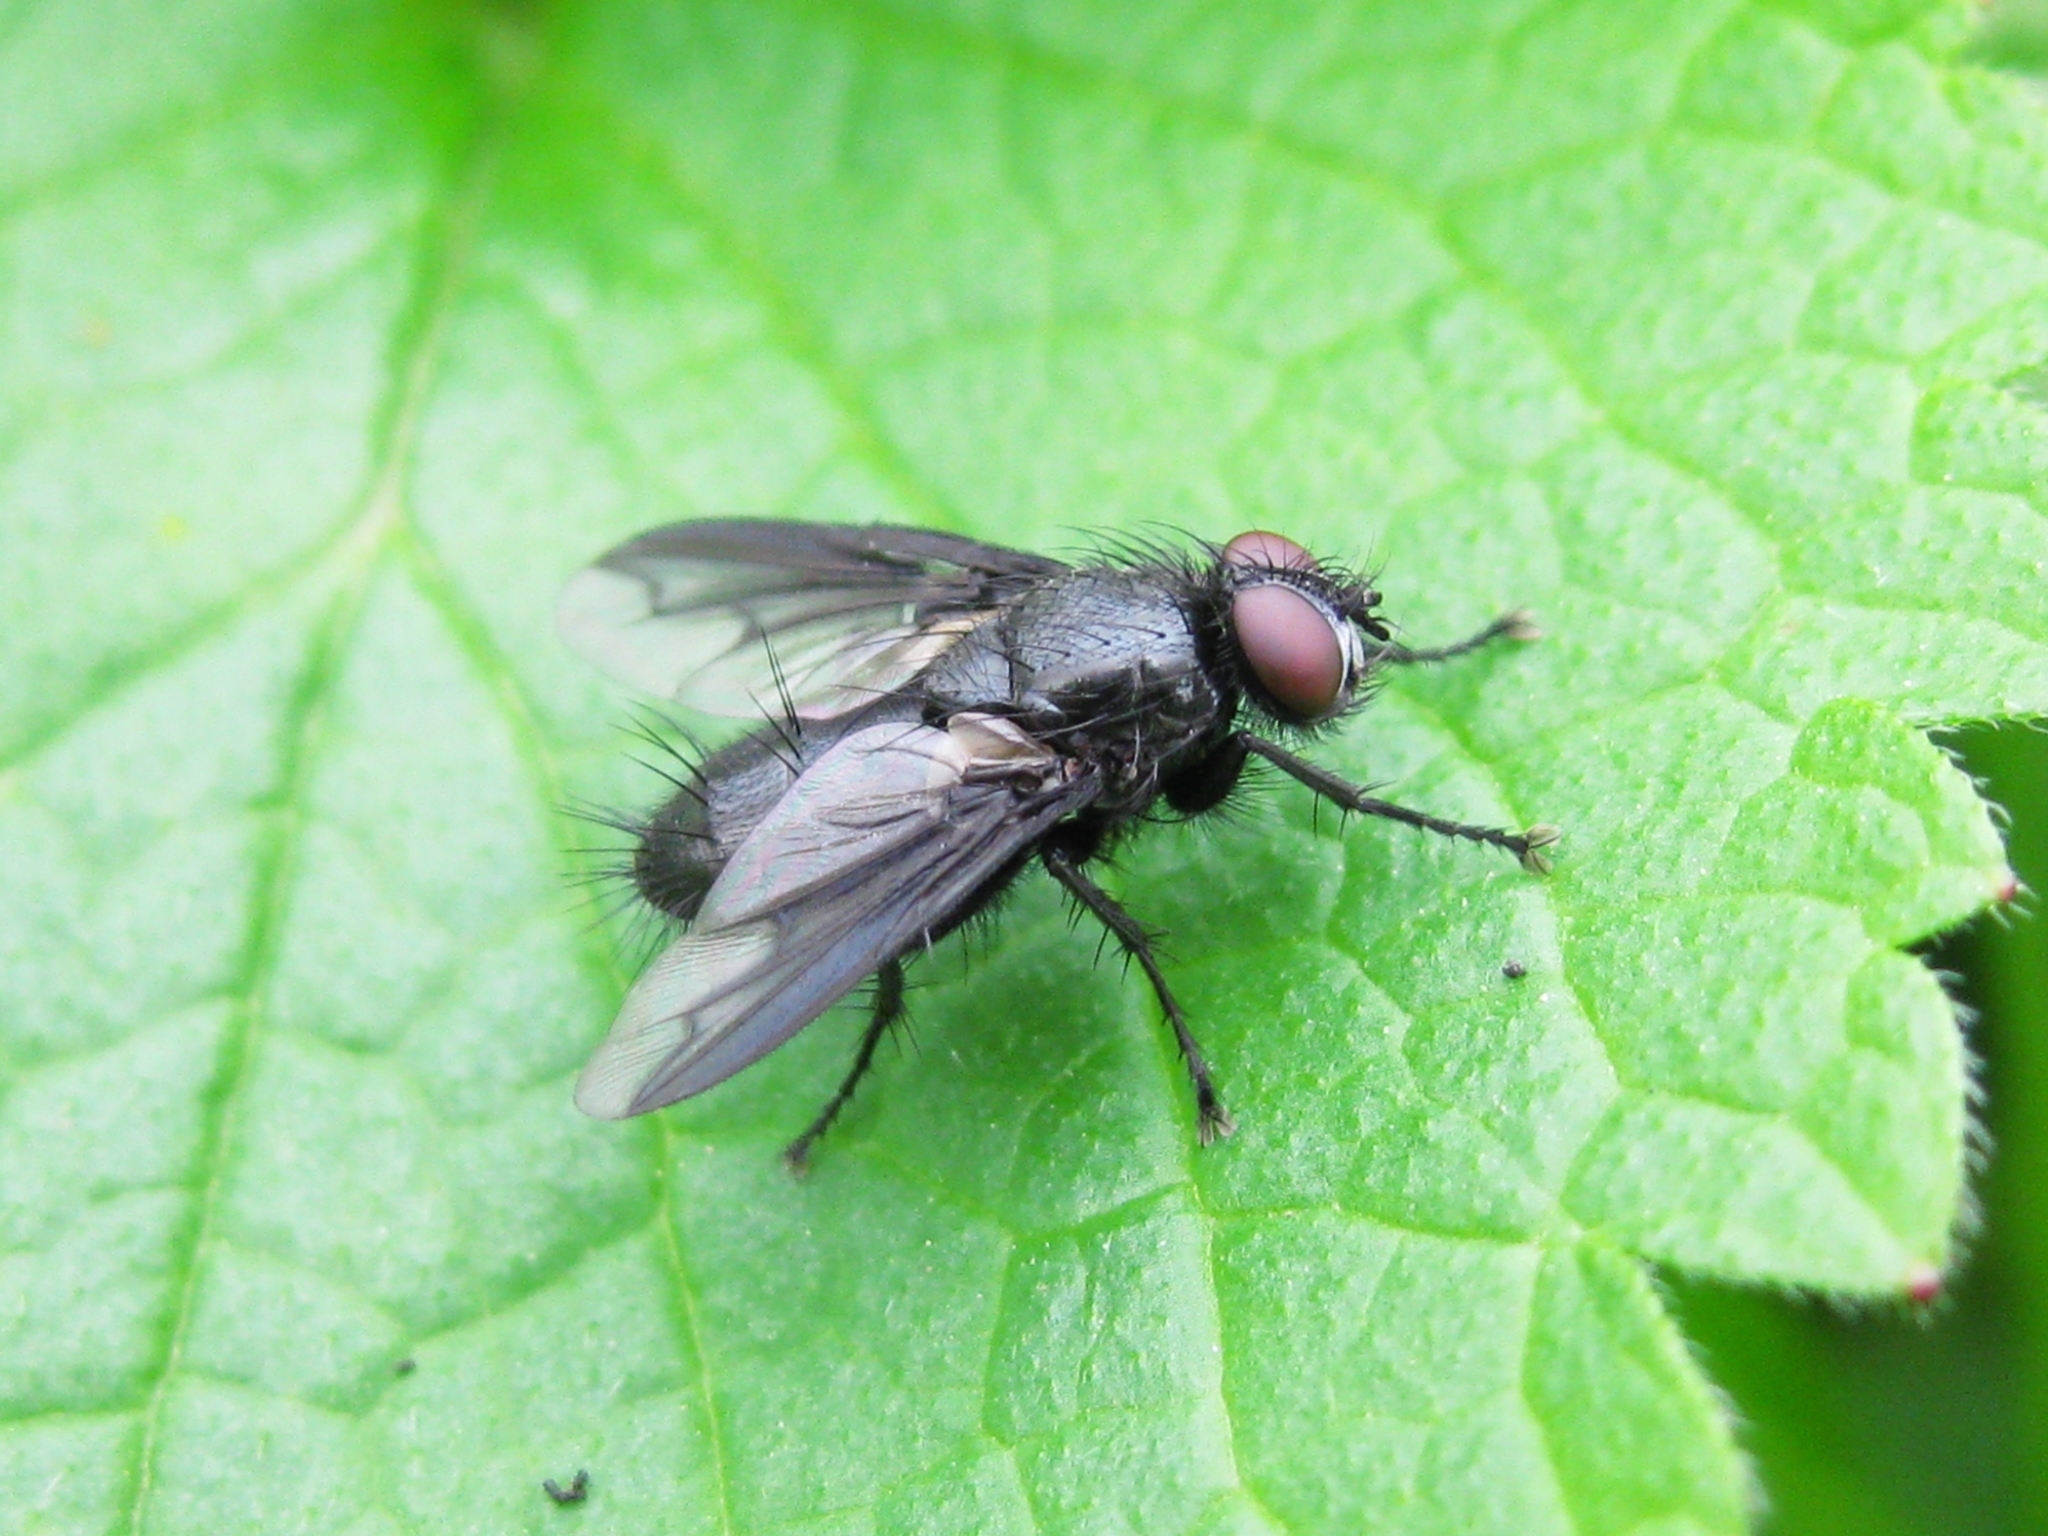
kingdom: Animalia
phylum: Arthropoda
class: Insecta
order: Diptera
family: Sarcophagidae
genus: Nyctia
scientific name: Nyctia halterata
